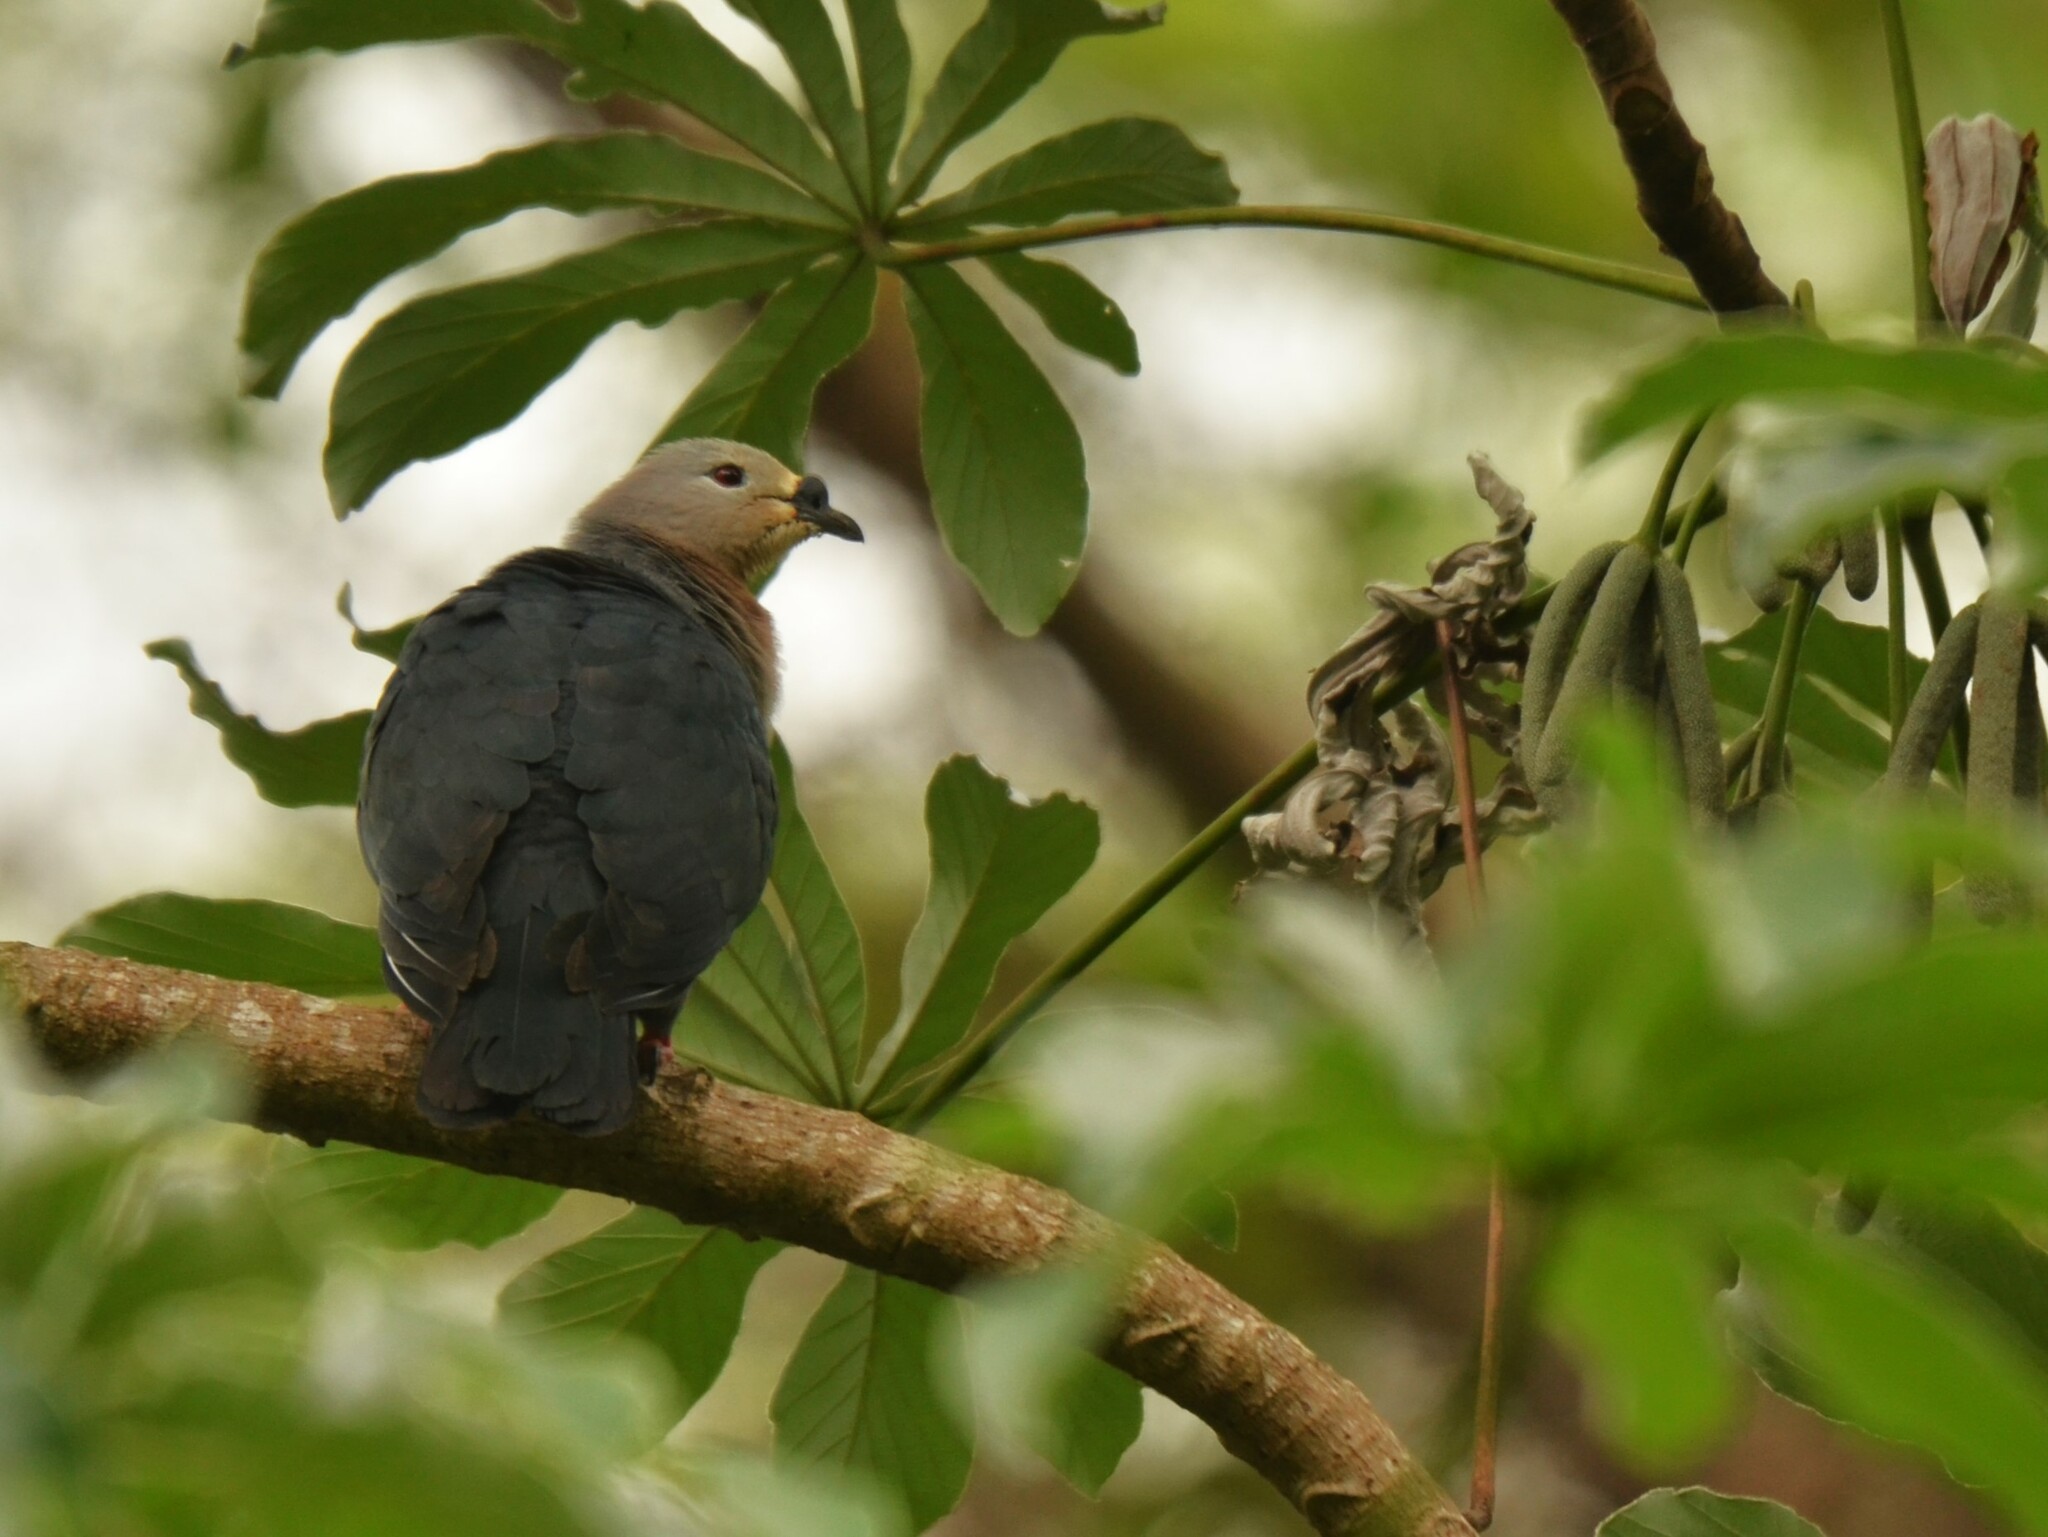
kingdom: Animalia
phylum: Chordata
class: Aves
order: Columbiformes
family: Columbidae
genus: Ducula
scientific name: Ducula pacifica
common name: Pacific imperial-pigeon
